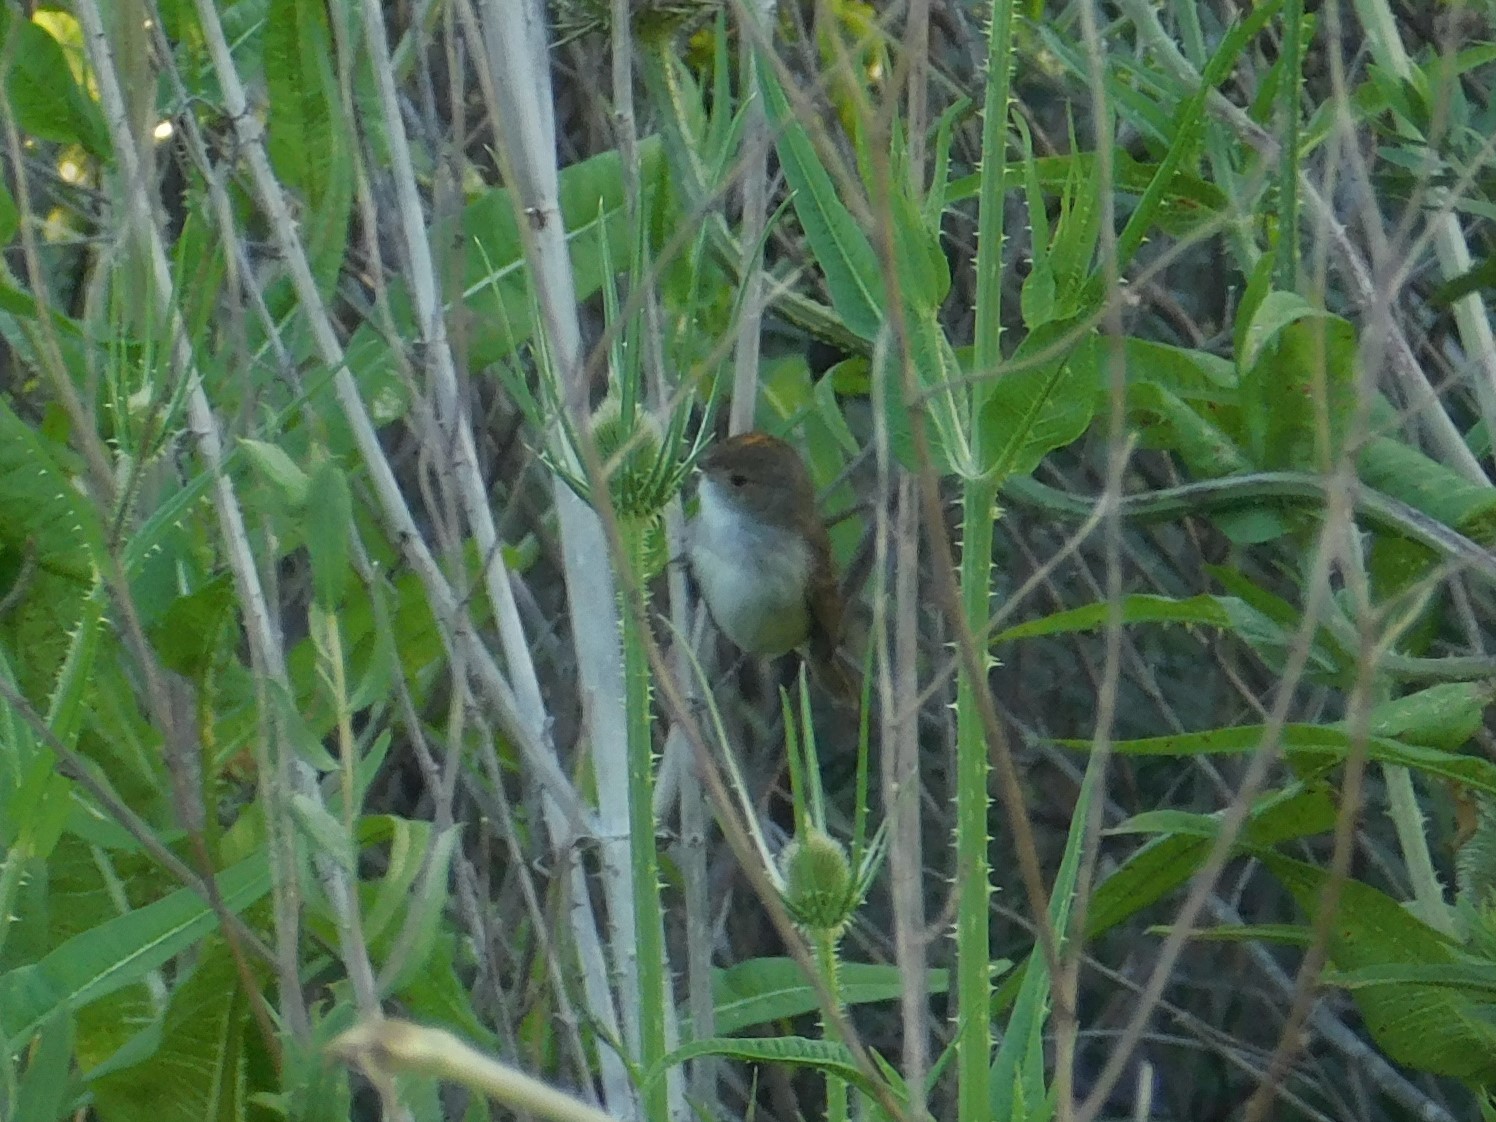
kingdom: Animalia
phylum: Chordata
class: Aves
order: Passeriformes
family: Tyrannidae
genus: Euscarthmus
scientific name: Euscarthmus meloryphus
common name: Tawny-crowned pygmy tyrant
